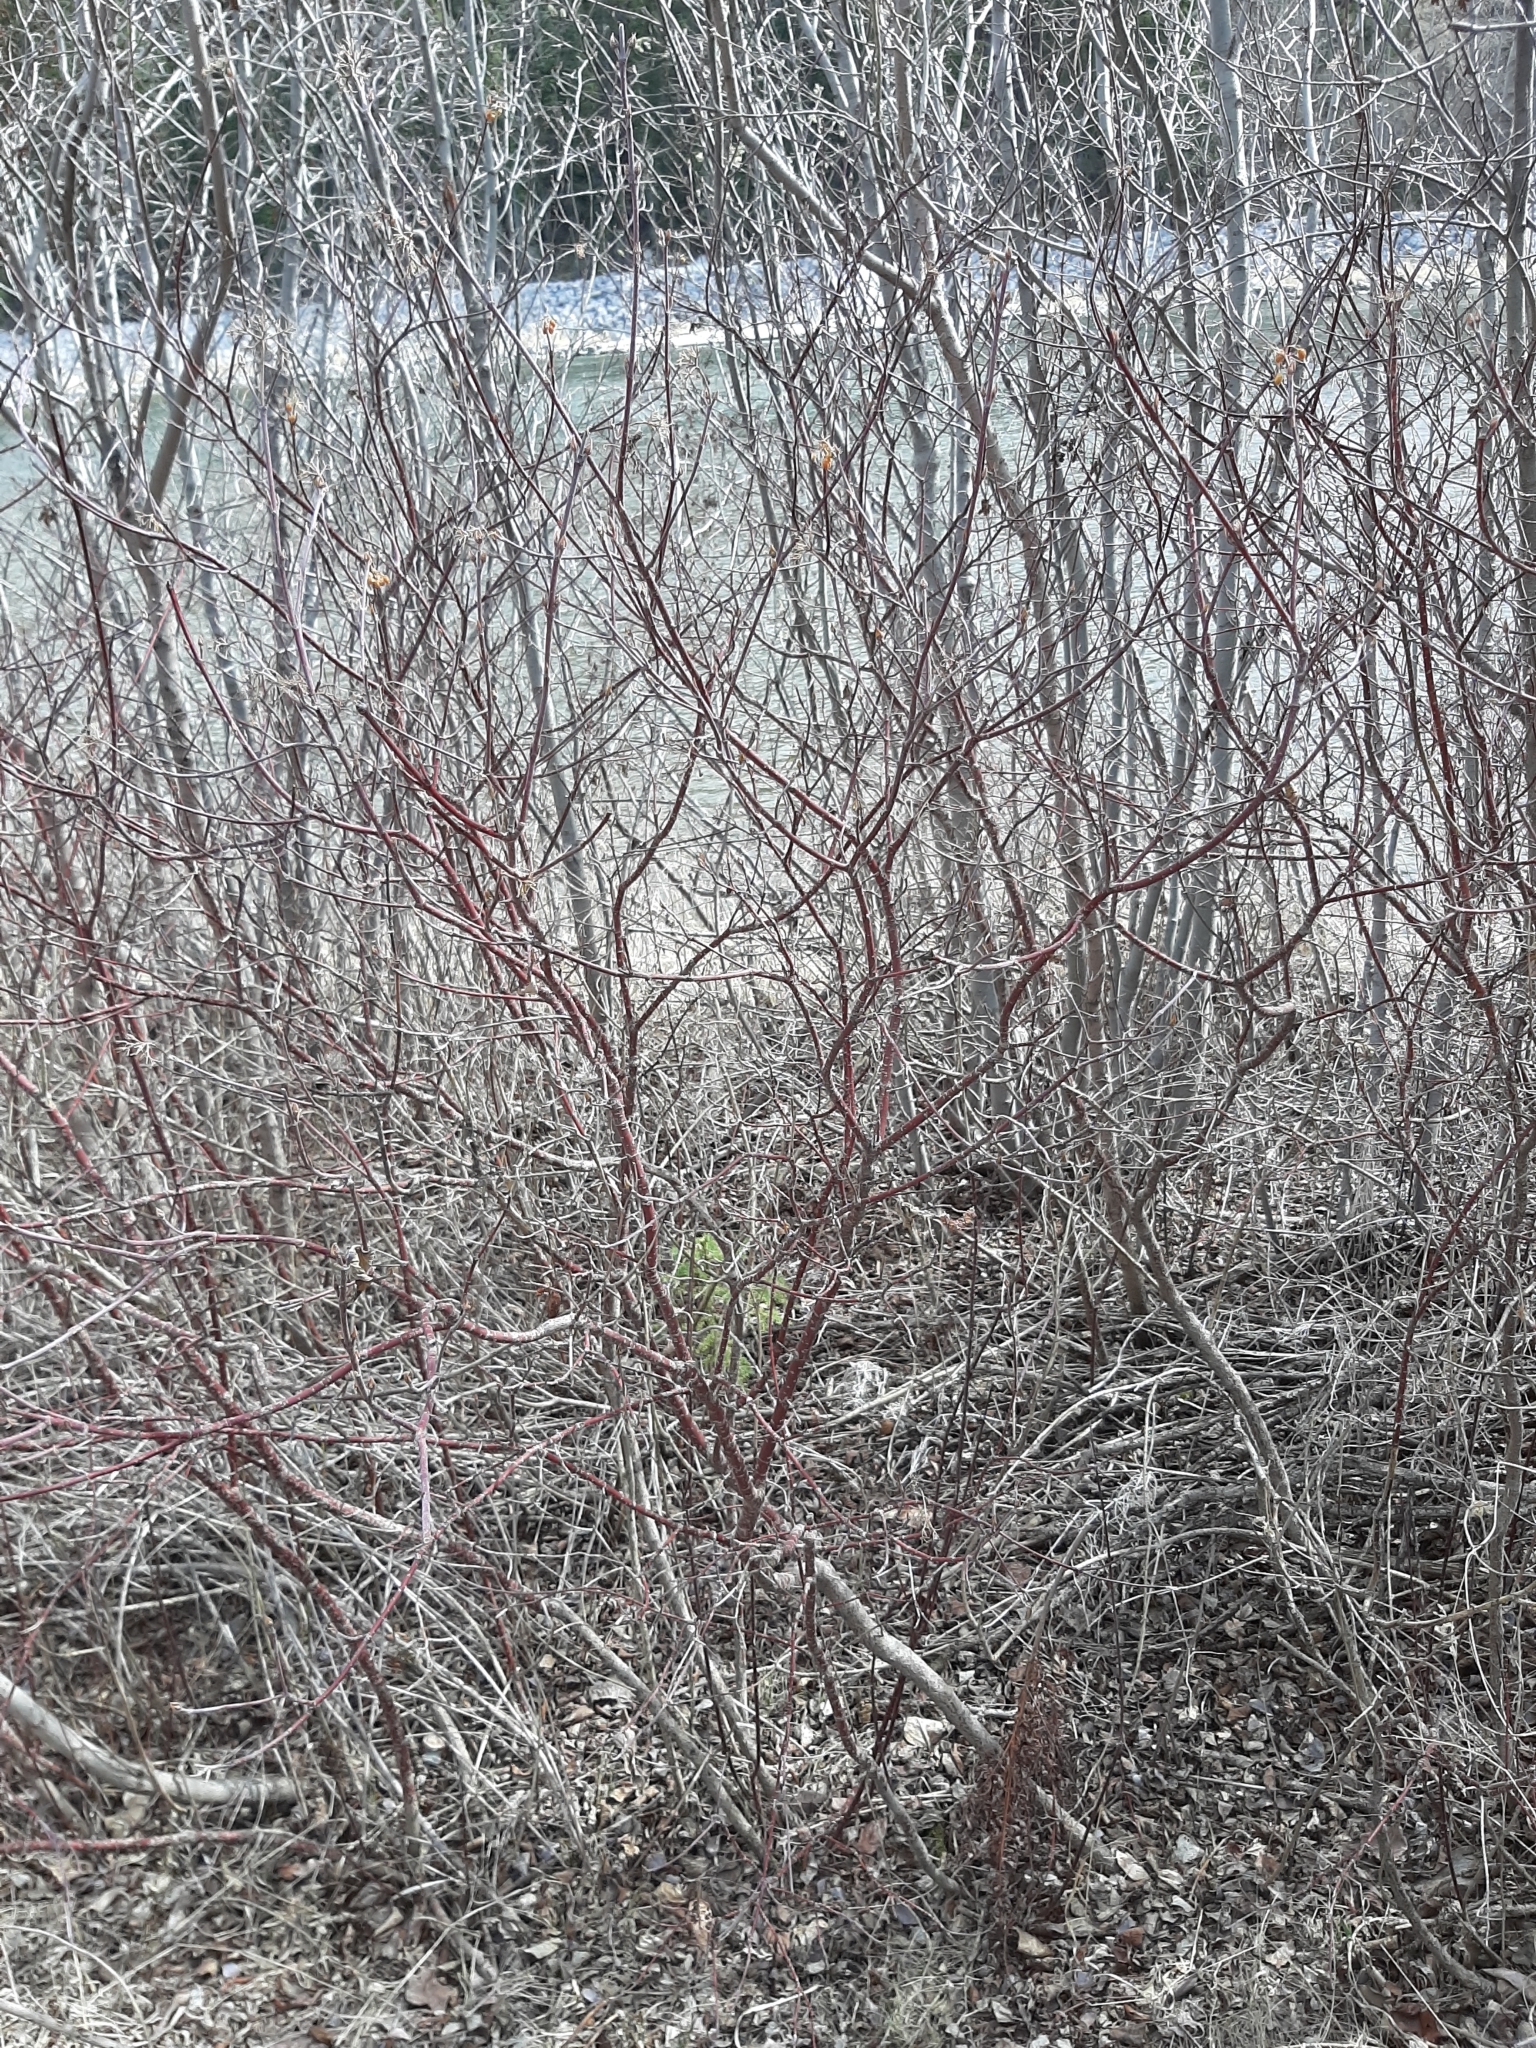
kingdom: Plantae
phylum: Tracheophyta
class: Magnoliopsida
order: Cornales
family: Cornaceae
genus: Cornus
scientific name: Cornus sericea
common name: Red-osier dogwood
